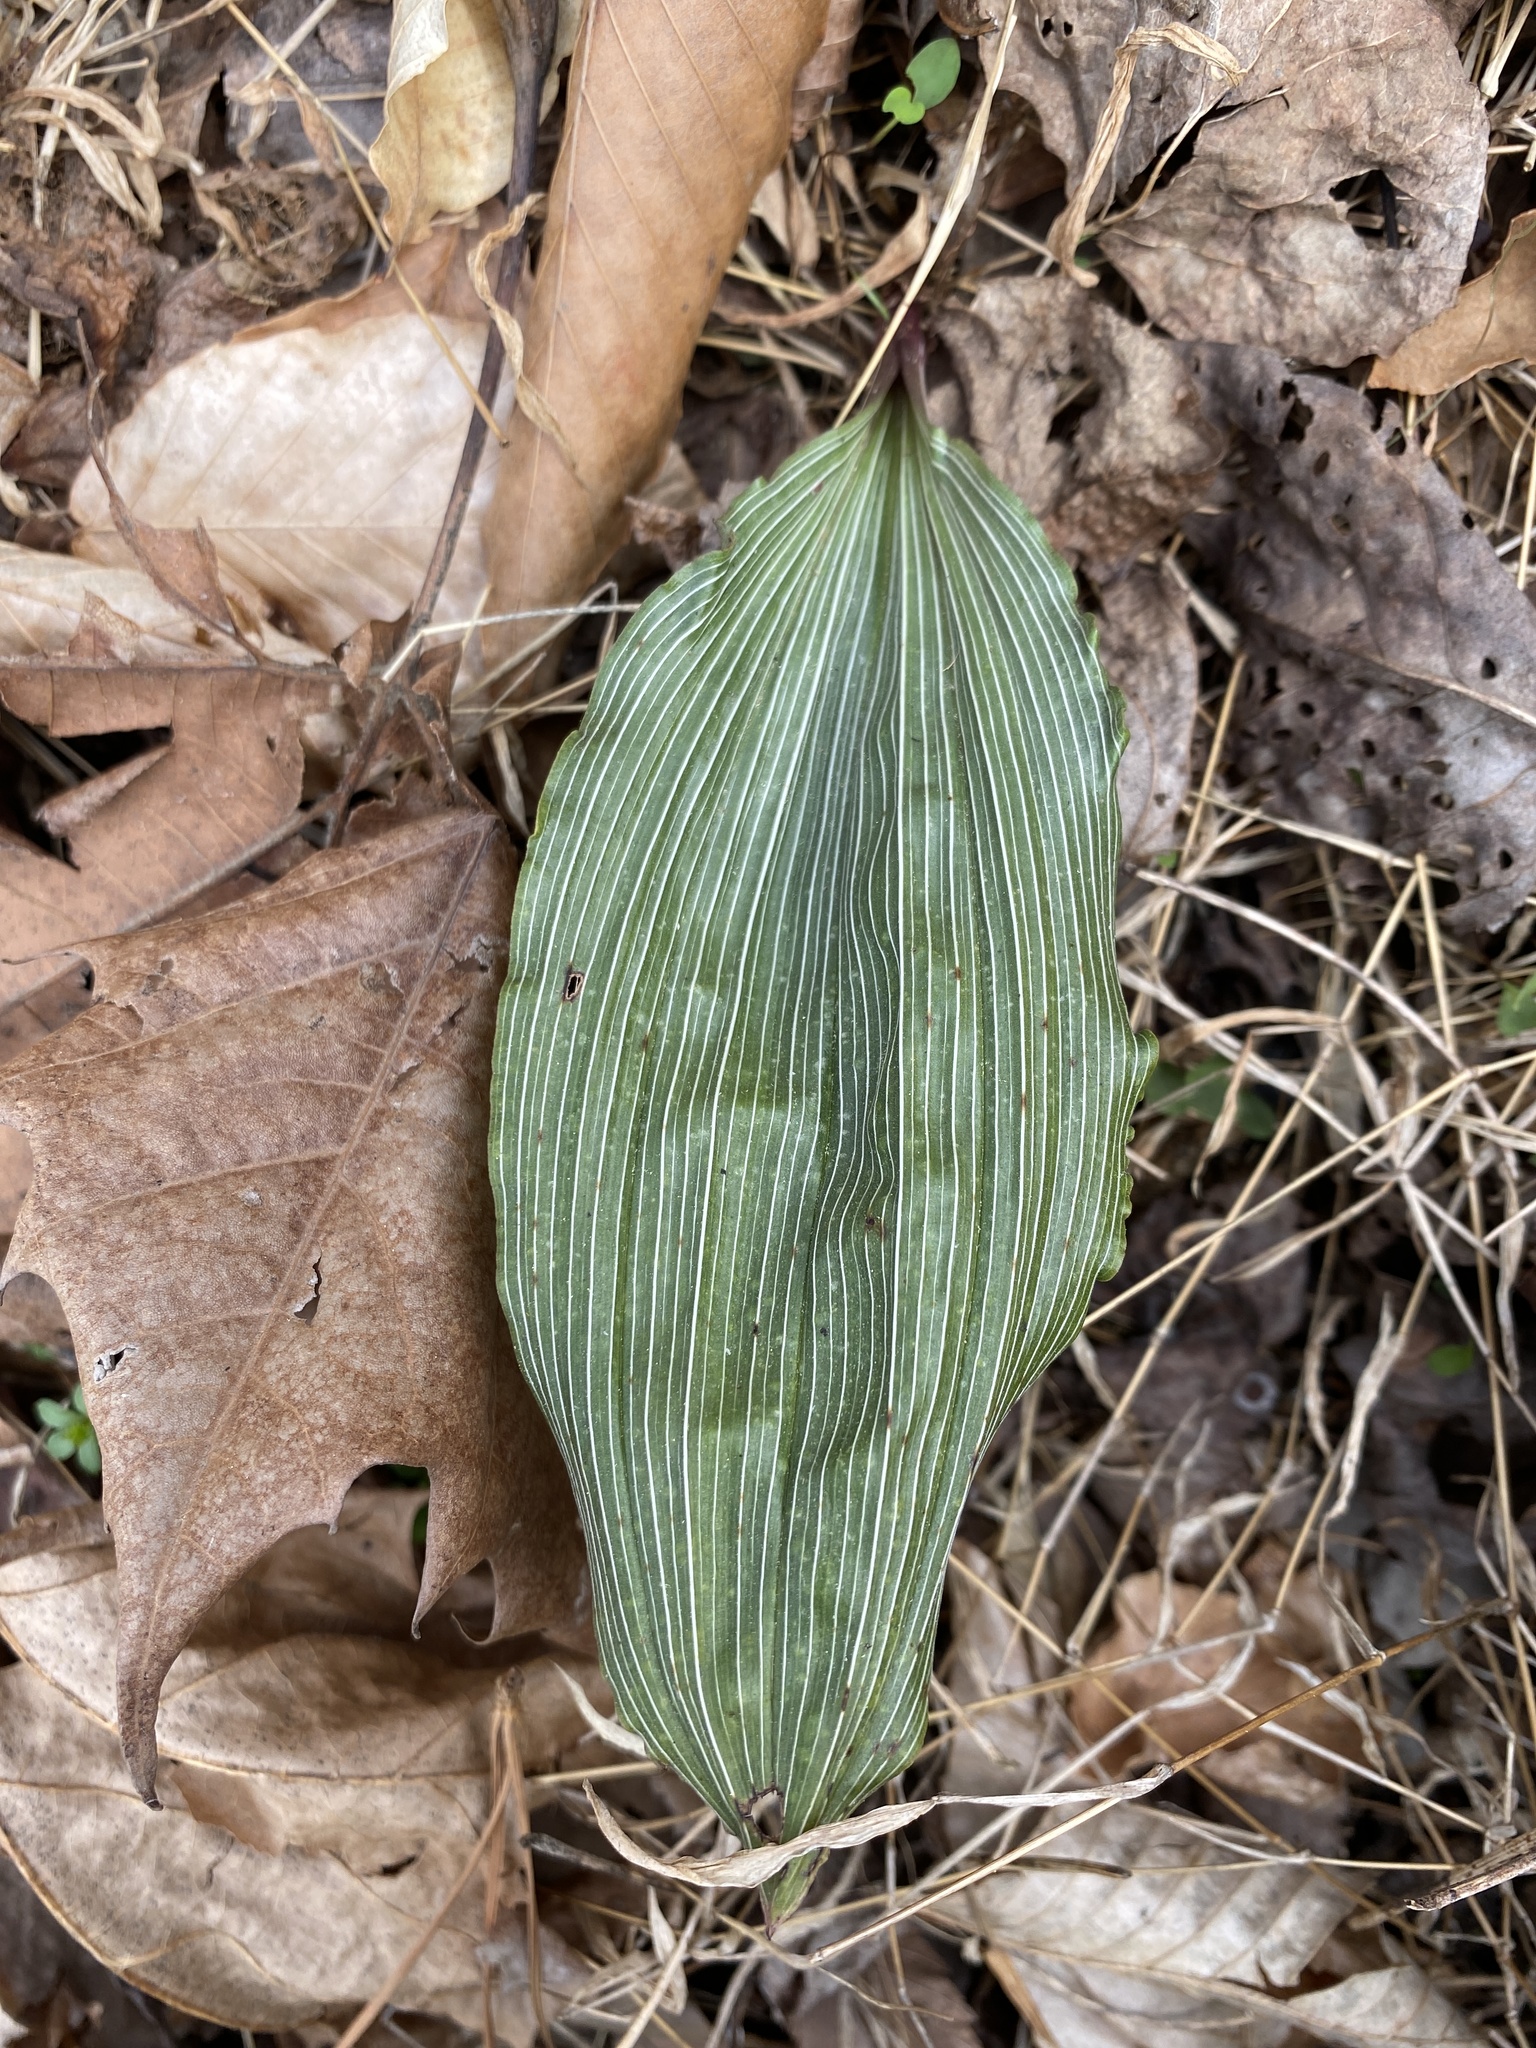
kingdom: Plantae
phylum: Tracheophyta
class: Liliopsida
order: Asparagales
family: Orchidaceae
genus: Aplectrum
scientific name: Aplectrum hyemale
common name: Adam-and-eve
